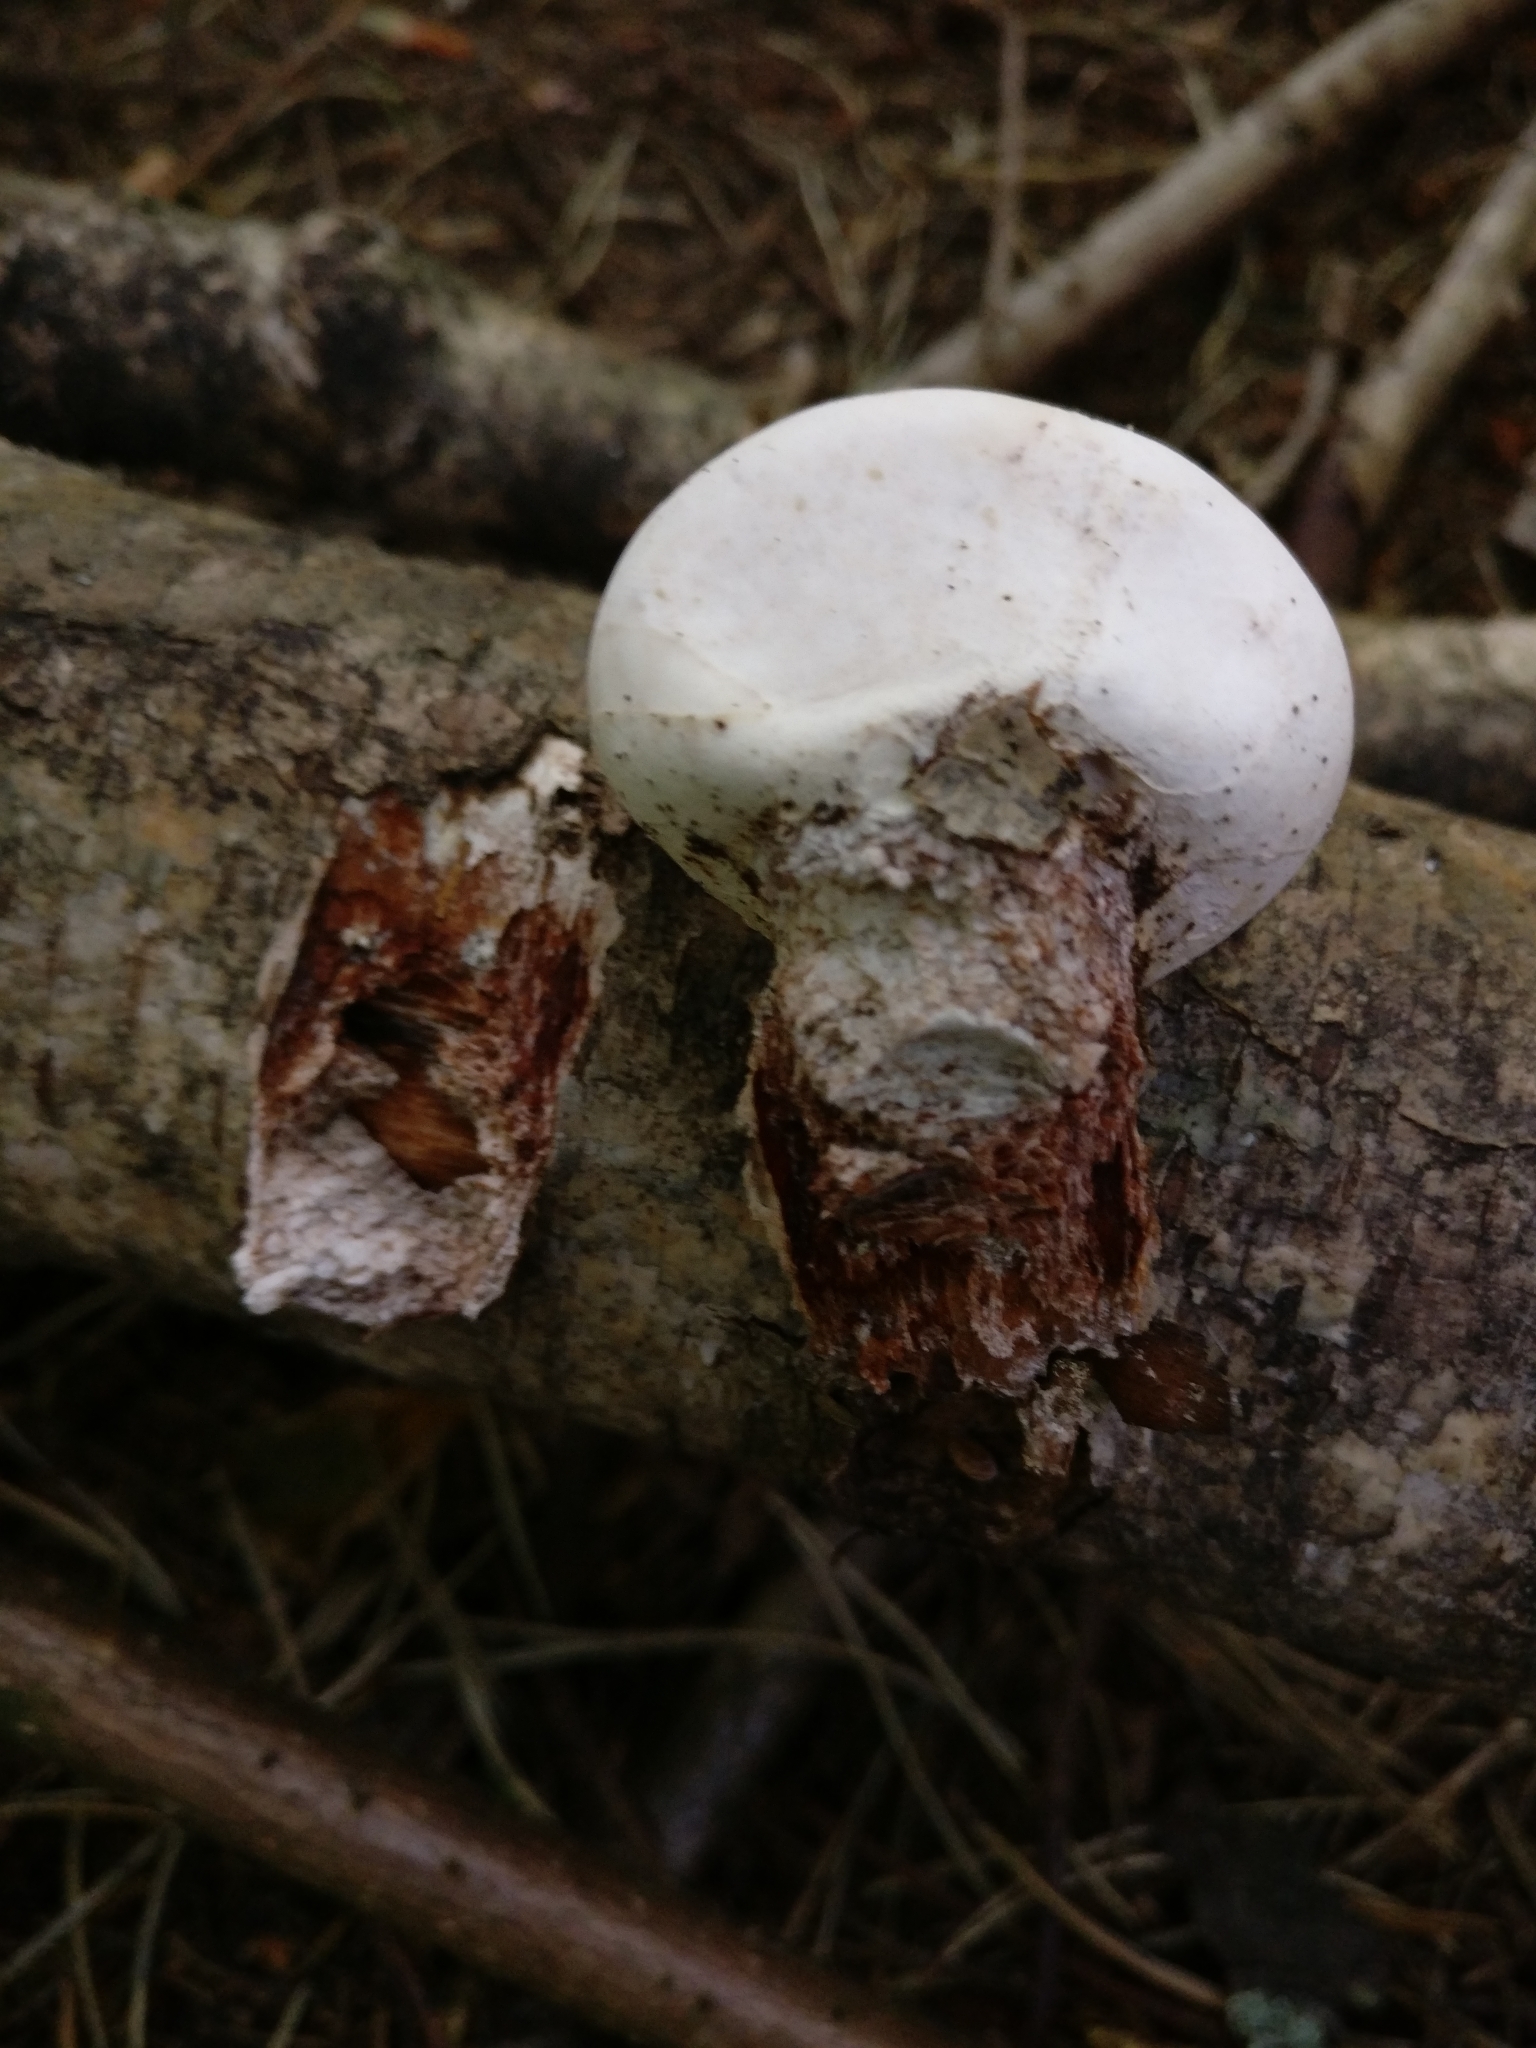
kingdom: Fungi
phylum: Basidiomycota
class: Agaricomycetes
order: Polyporales
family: Fomitopsidaceae
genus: Fomitopsis
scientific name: Fomitopsis betulina
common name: Birch polypore
